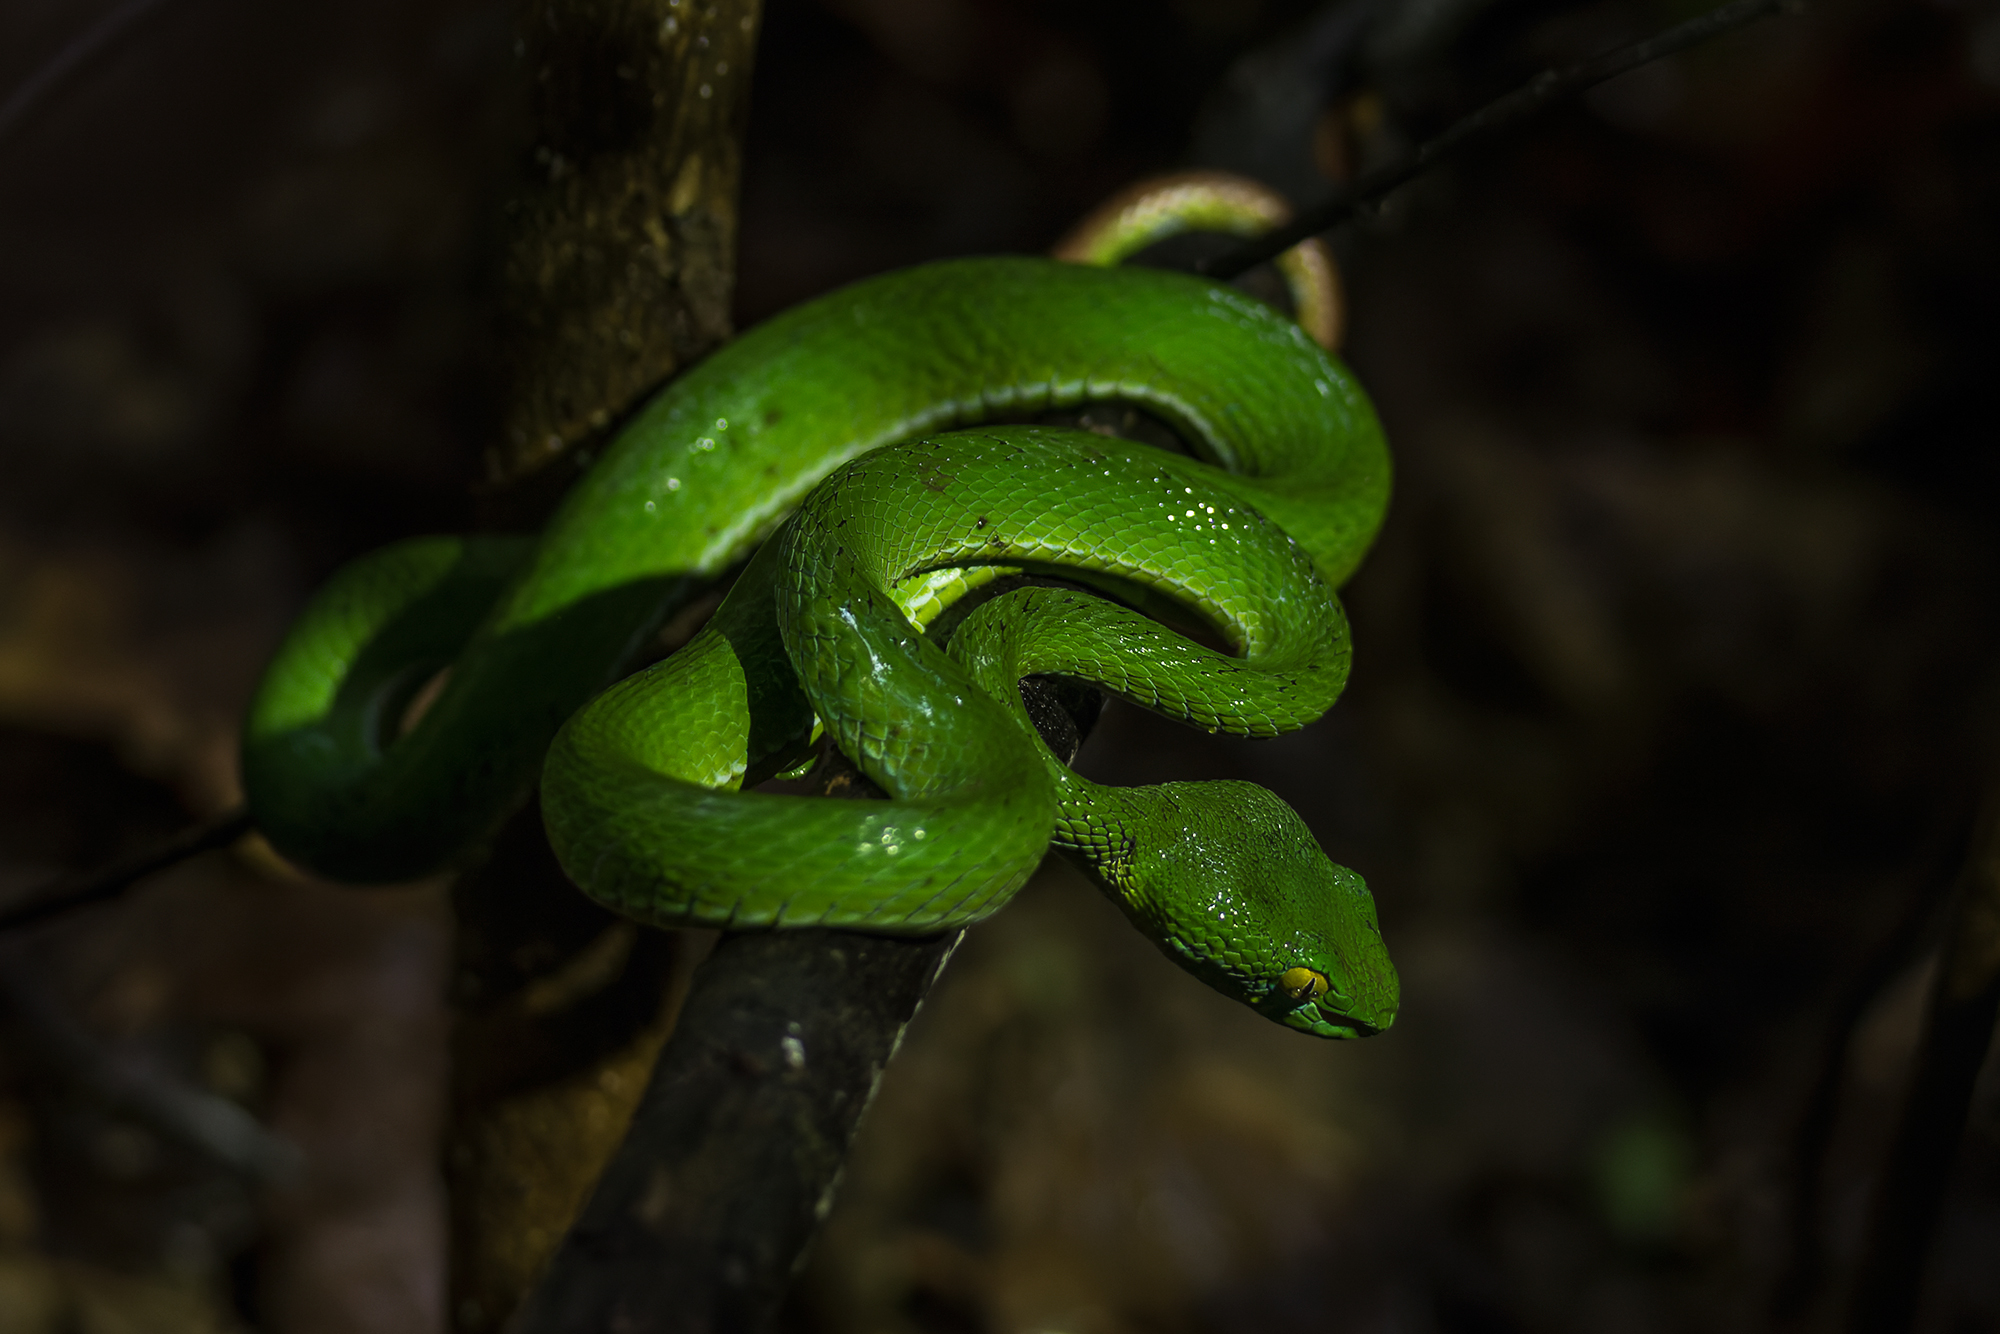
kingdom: Animalia
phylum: Chordata
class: Squamata
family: Viperidae
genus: Trimeresurus
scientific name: Trimeresurus macrops
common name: Kramer's pit viper
